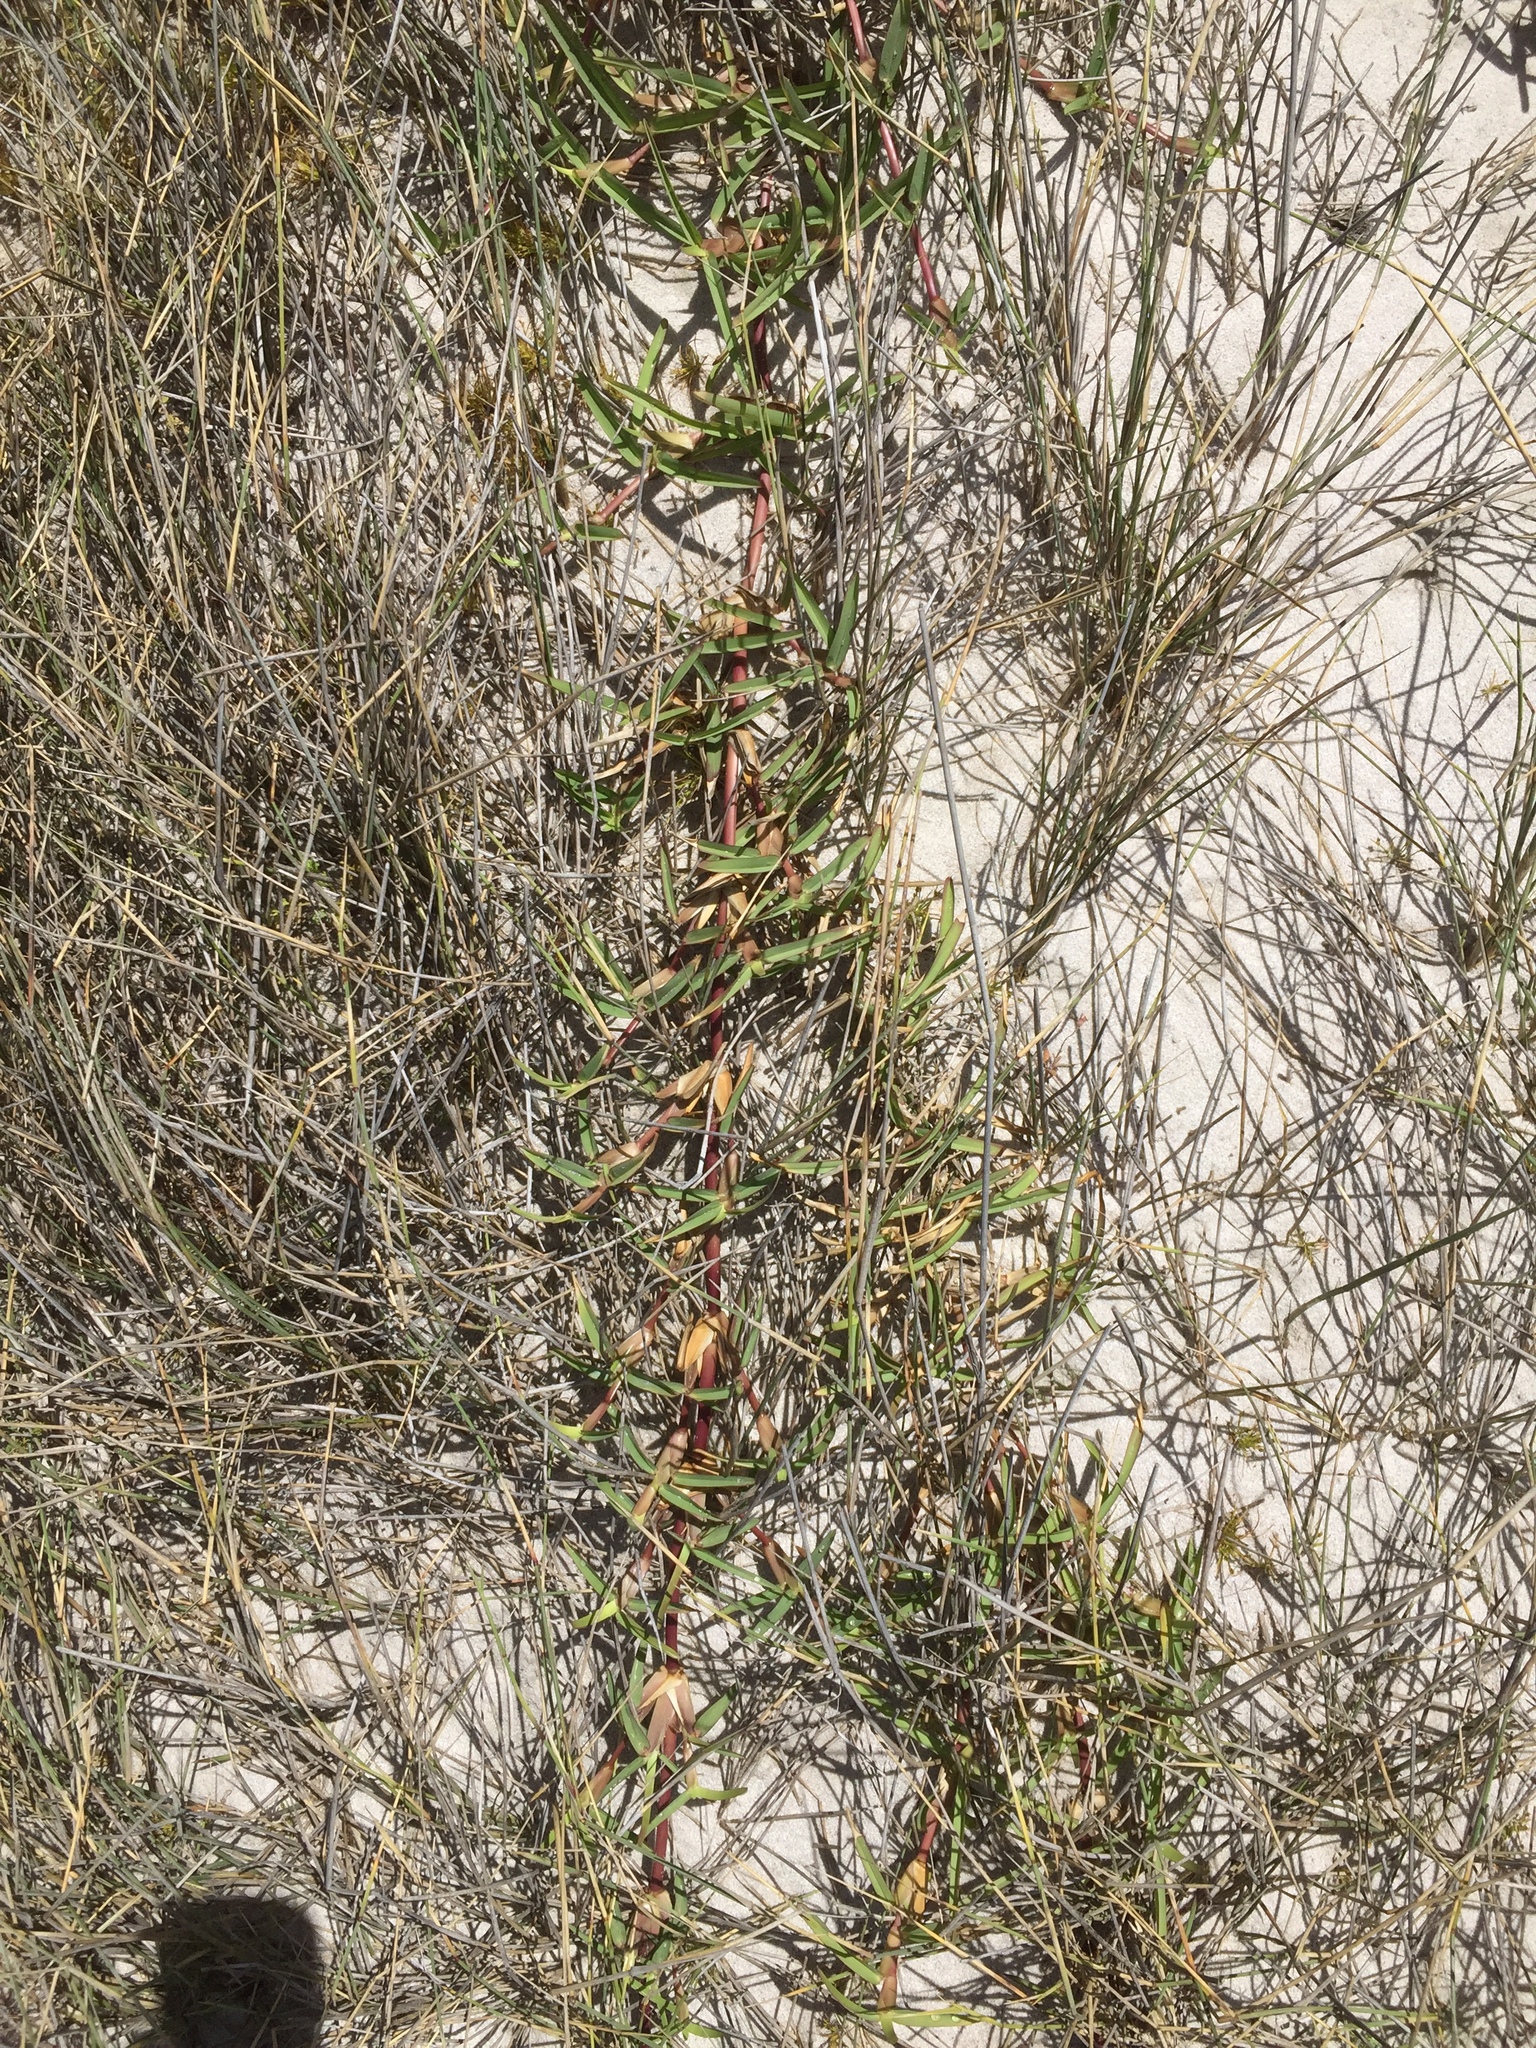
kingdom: Plantae
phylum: Tracheophyta
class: Liliopsida
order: Poales
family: Poaceae
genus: Stenotaphrum
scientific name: Stenotaphrum secundatum
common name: St. augustine grass
